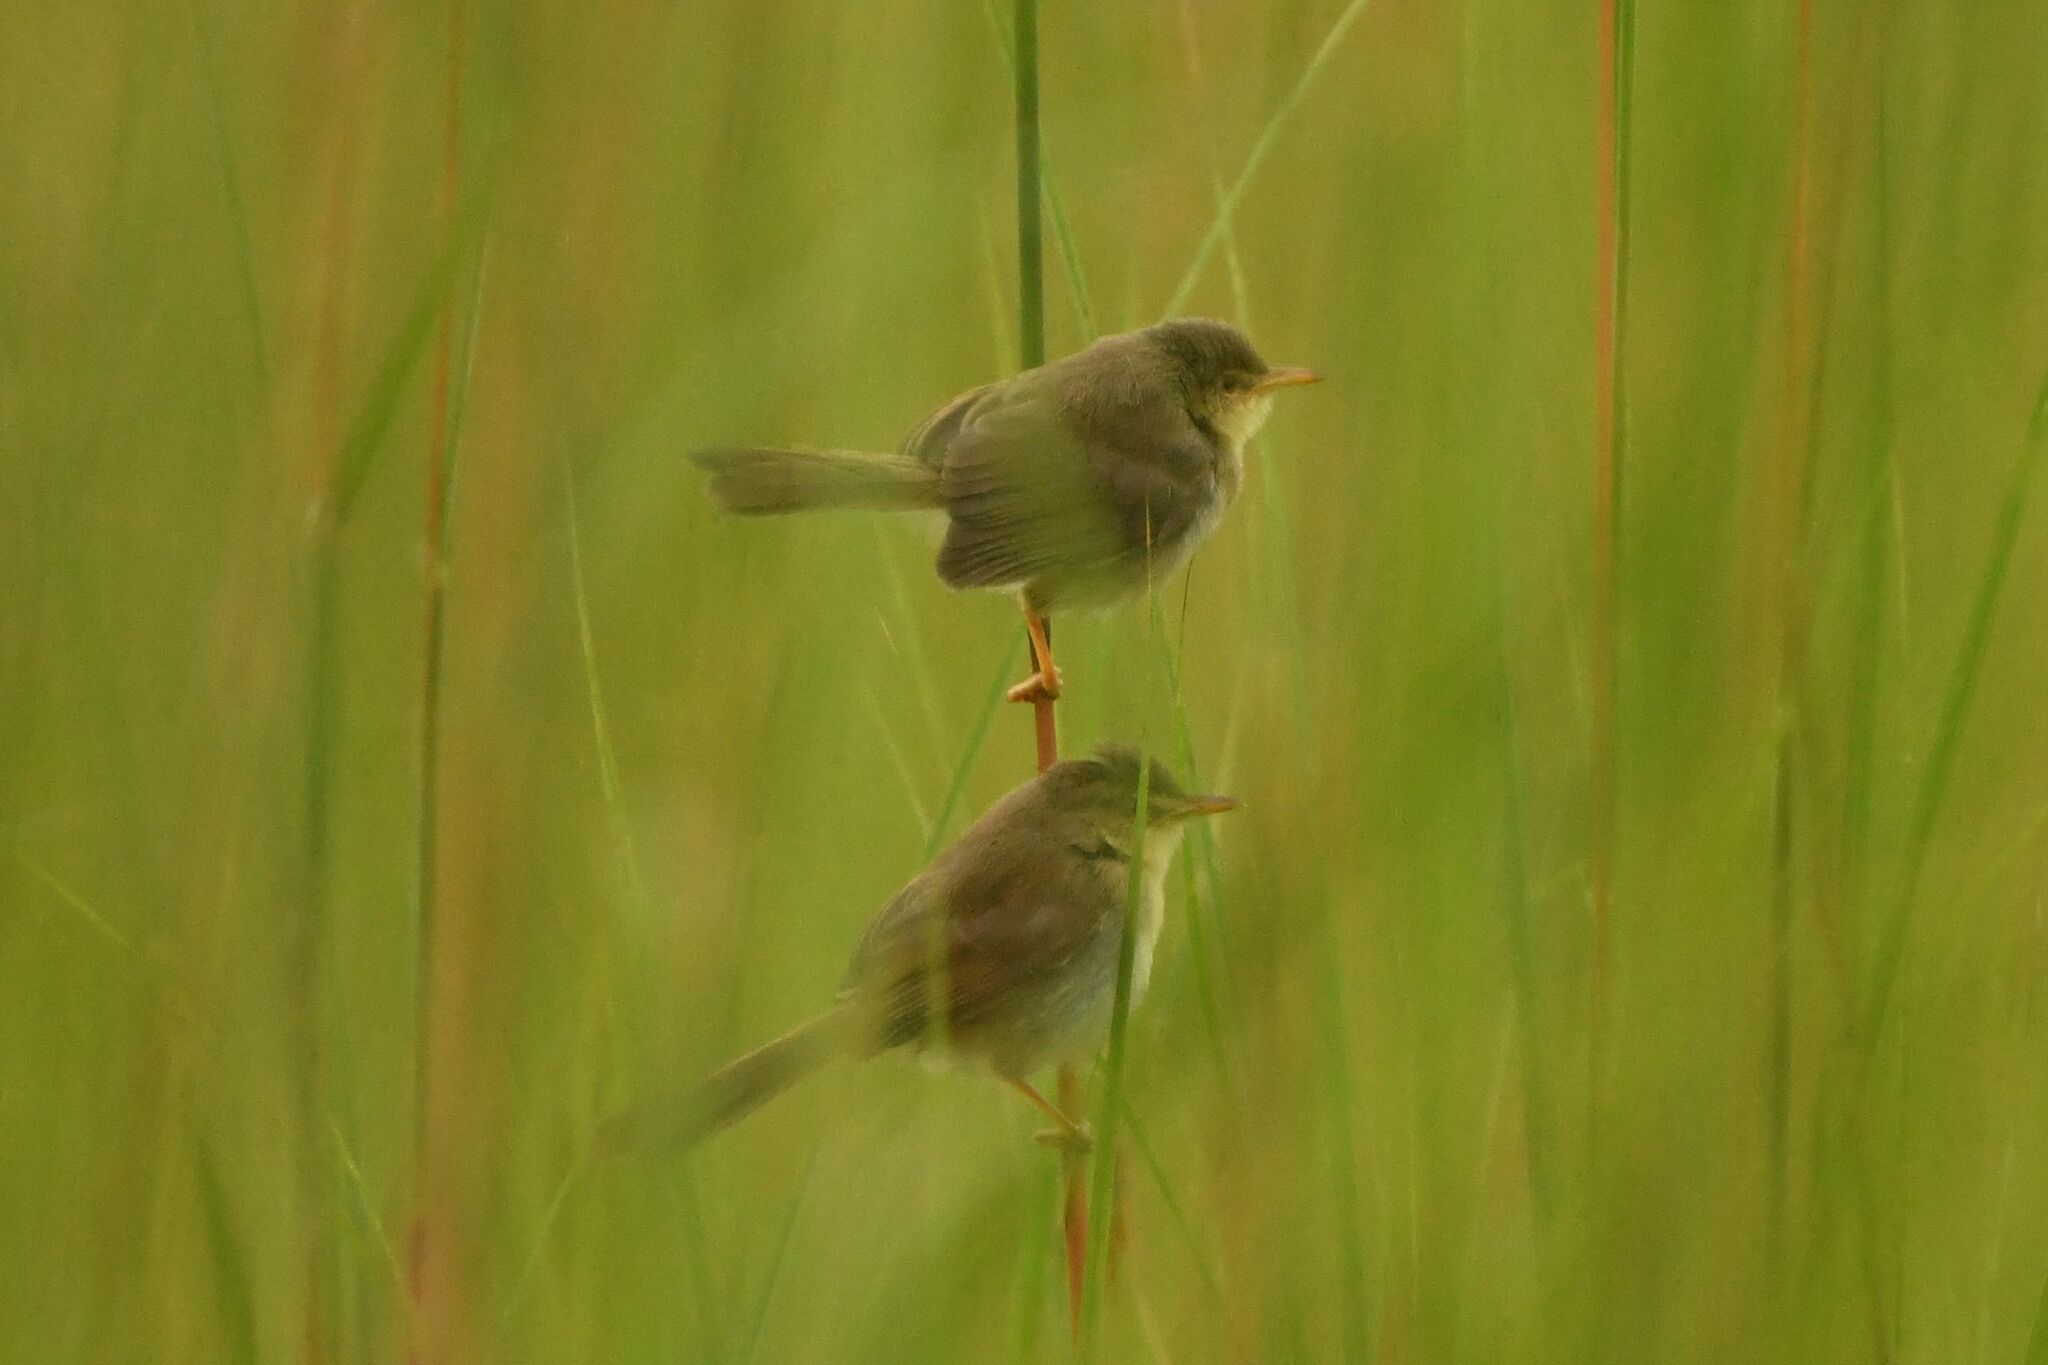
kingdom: Animalia
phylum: Chordata
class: Aves
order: Passeriformes
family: Cisticolidae
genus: Prinia
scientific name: Prinia subflava
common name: Tawny-flanked prinia
